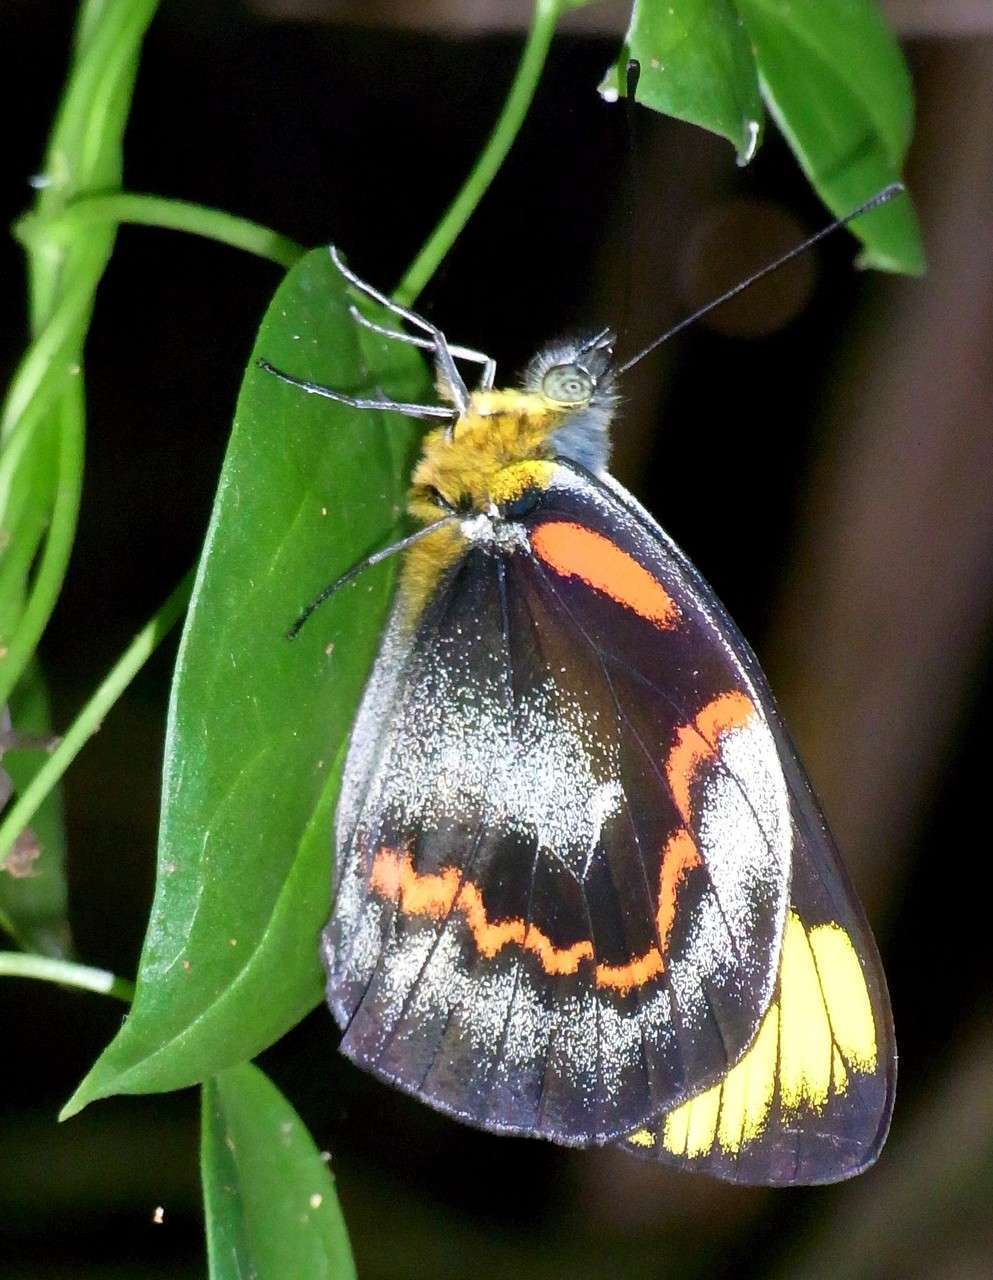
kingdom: Animalia
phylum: Arthropoda
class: Insecta
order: Lepidoptera
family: Pieridae
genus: Delias
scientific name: Delias nigrina
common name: Black jezebel
